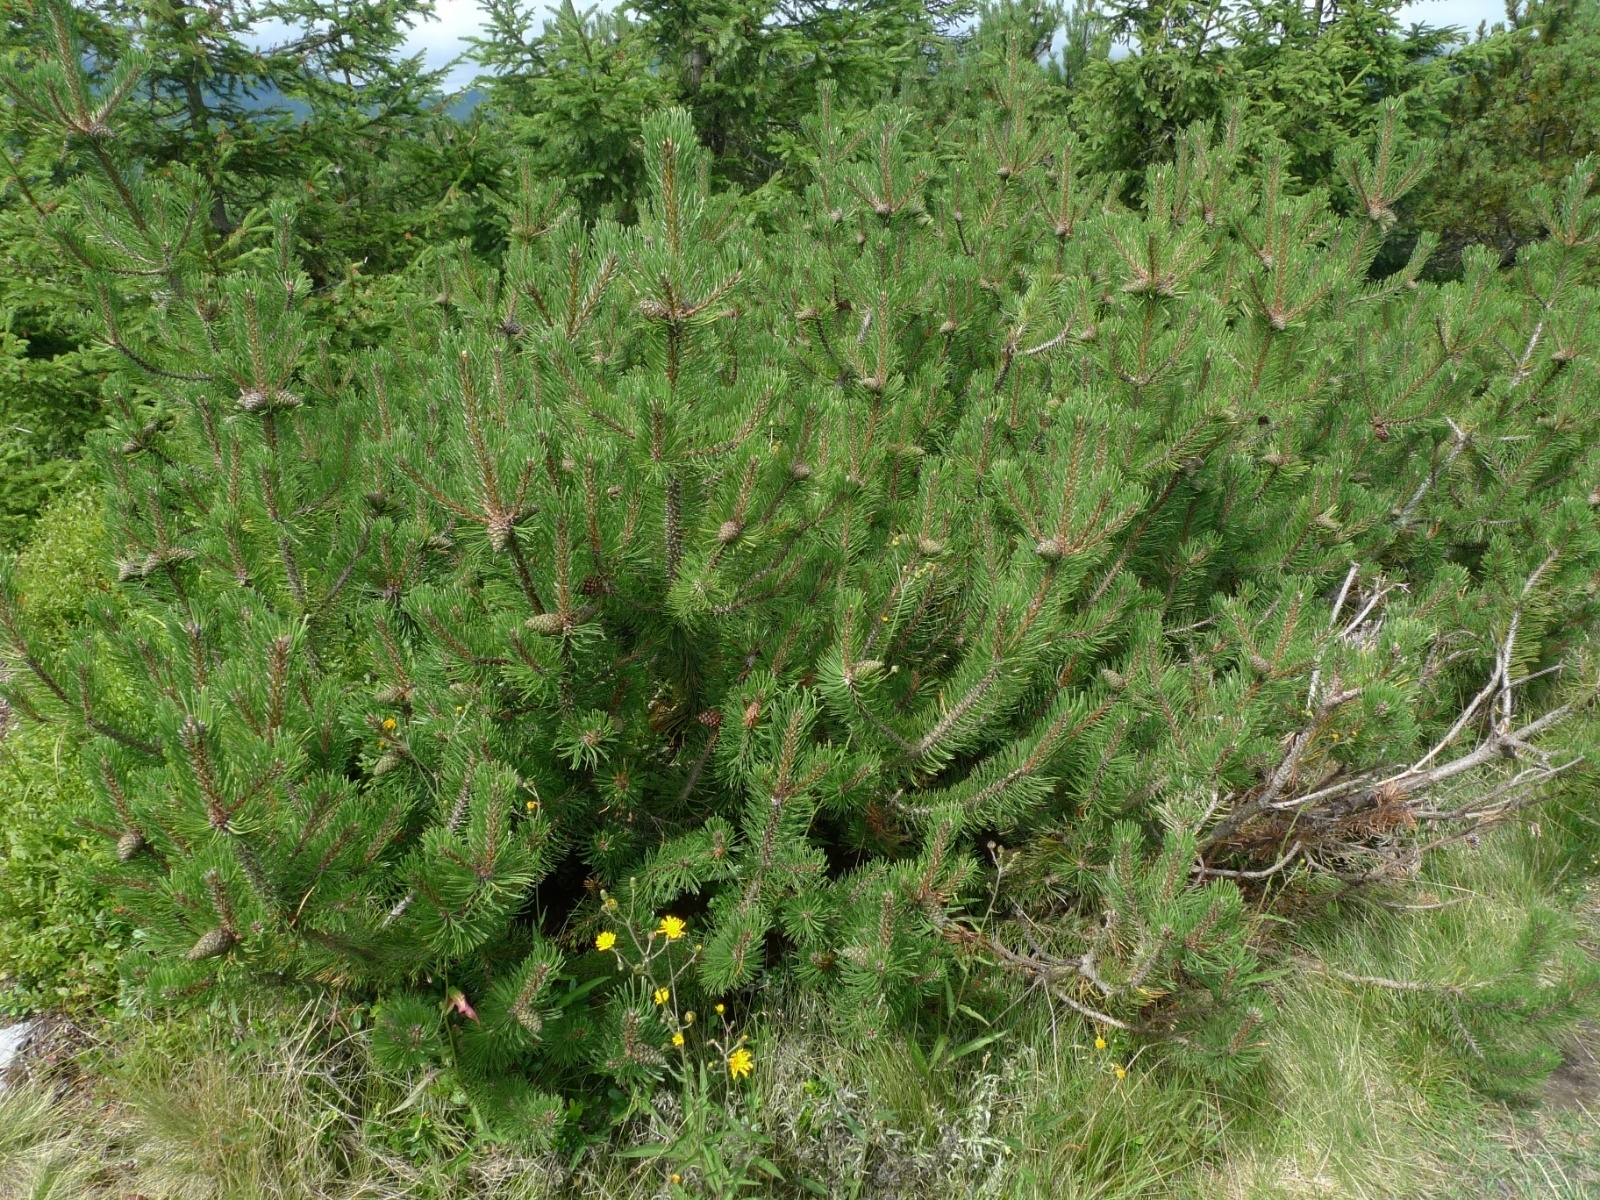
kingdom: Plantae
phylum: Tracheophyta
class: Pinopsida
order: Pinales
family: Pinaceae
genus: Pinus
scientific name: Pinus mugo
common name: Mugo pine
